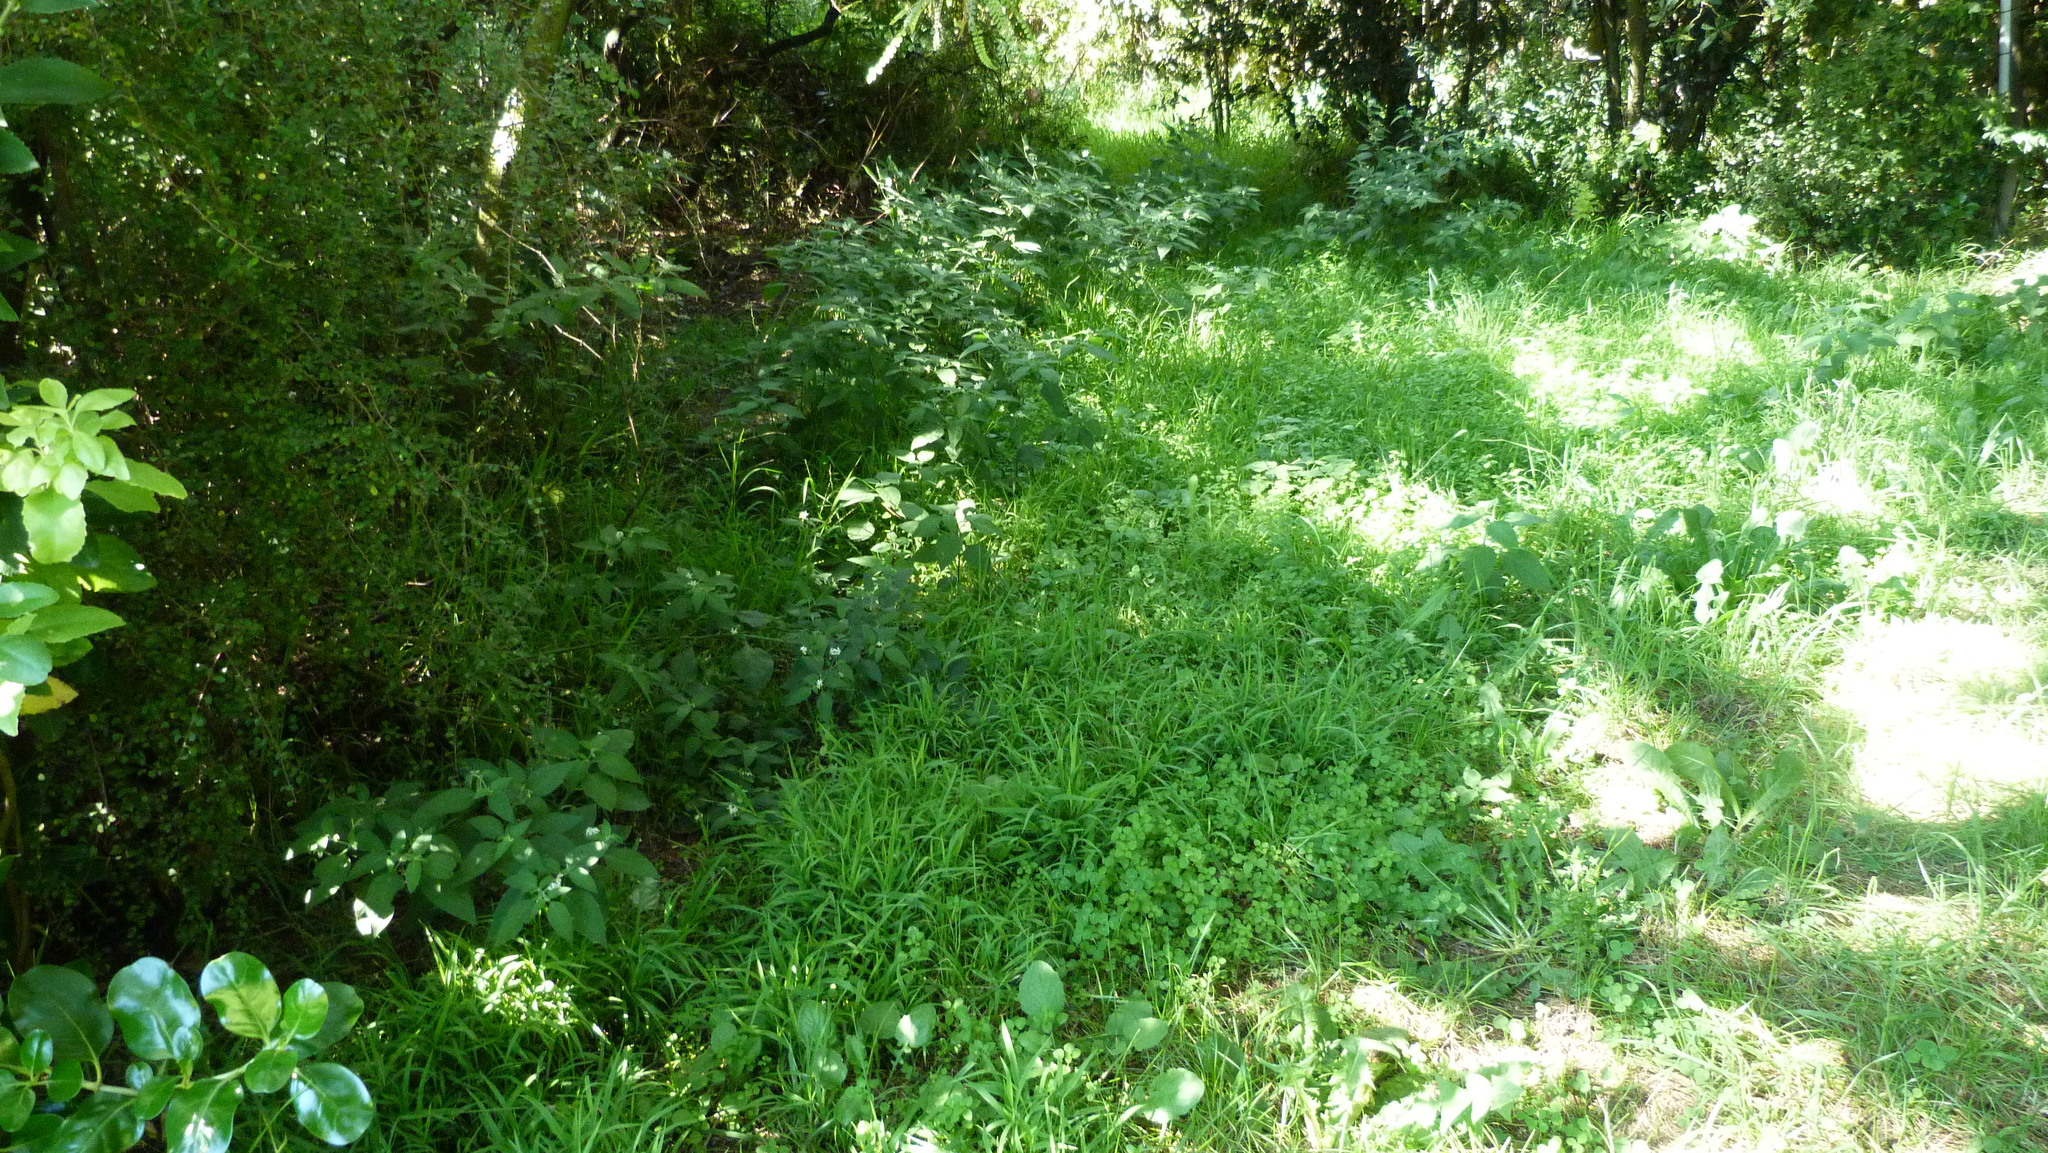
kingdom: Plantae
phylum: Tracheophyta
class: Liliopsida
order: Poales
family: Poaceae
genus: Ehrharta
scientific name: Ehrharta erecta
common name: Panic veldtgrass
